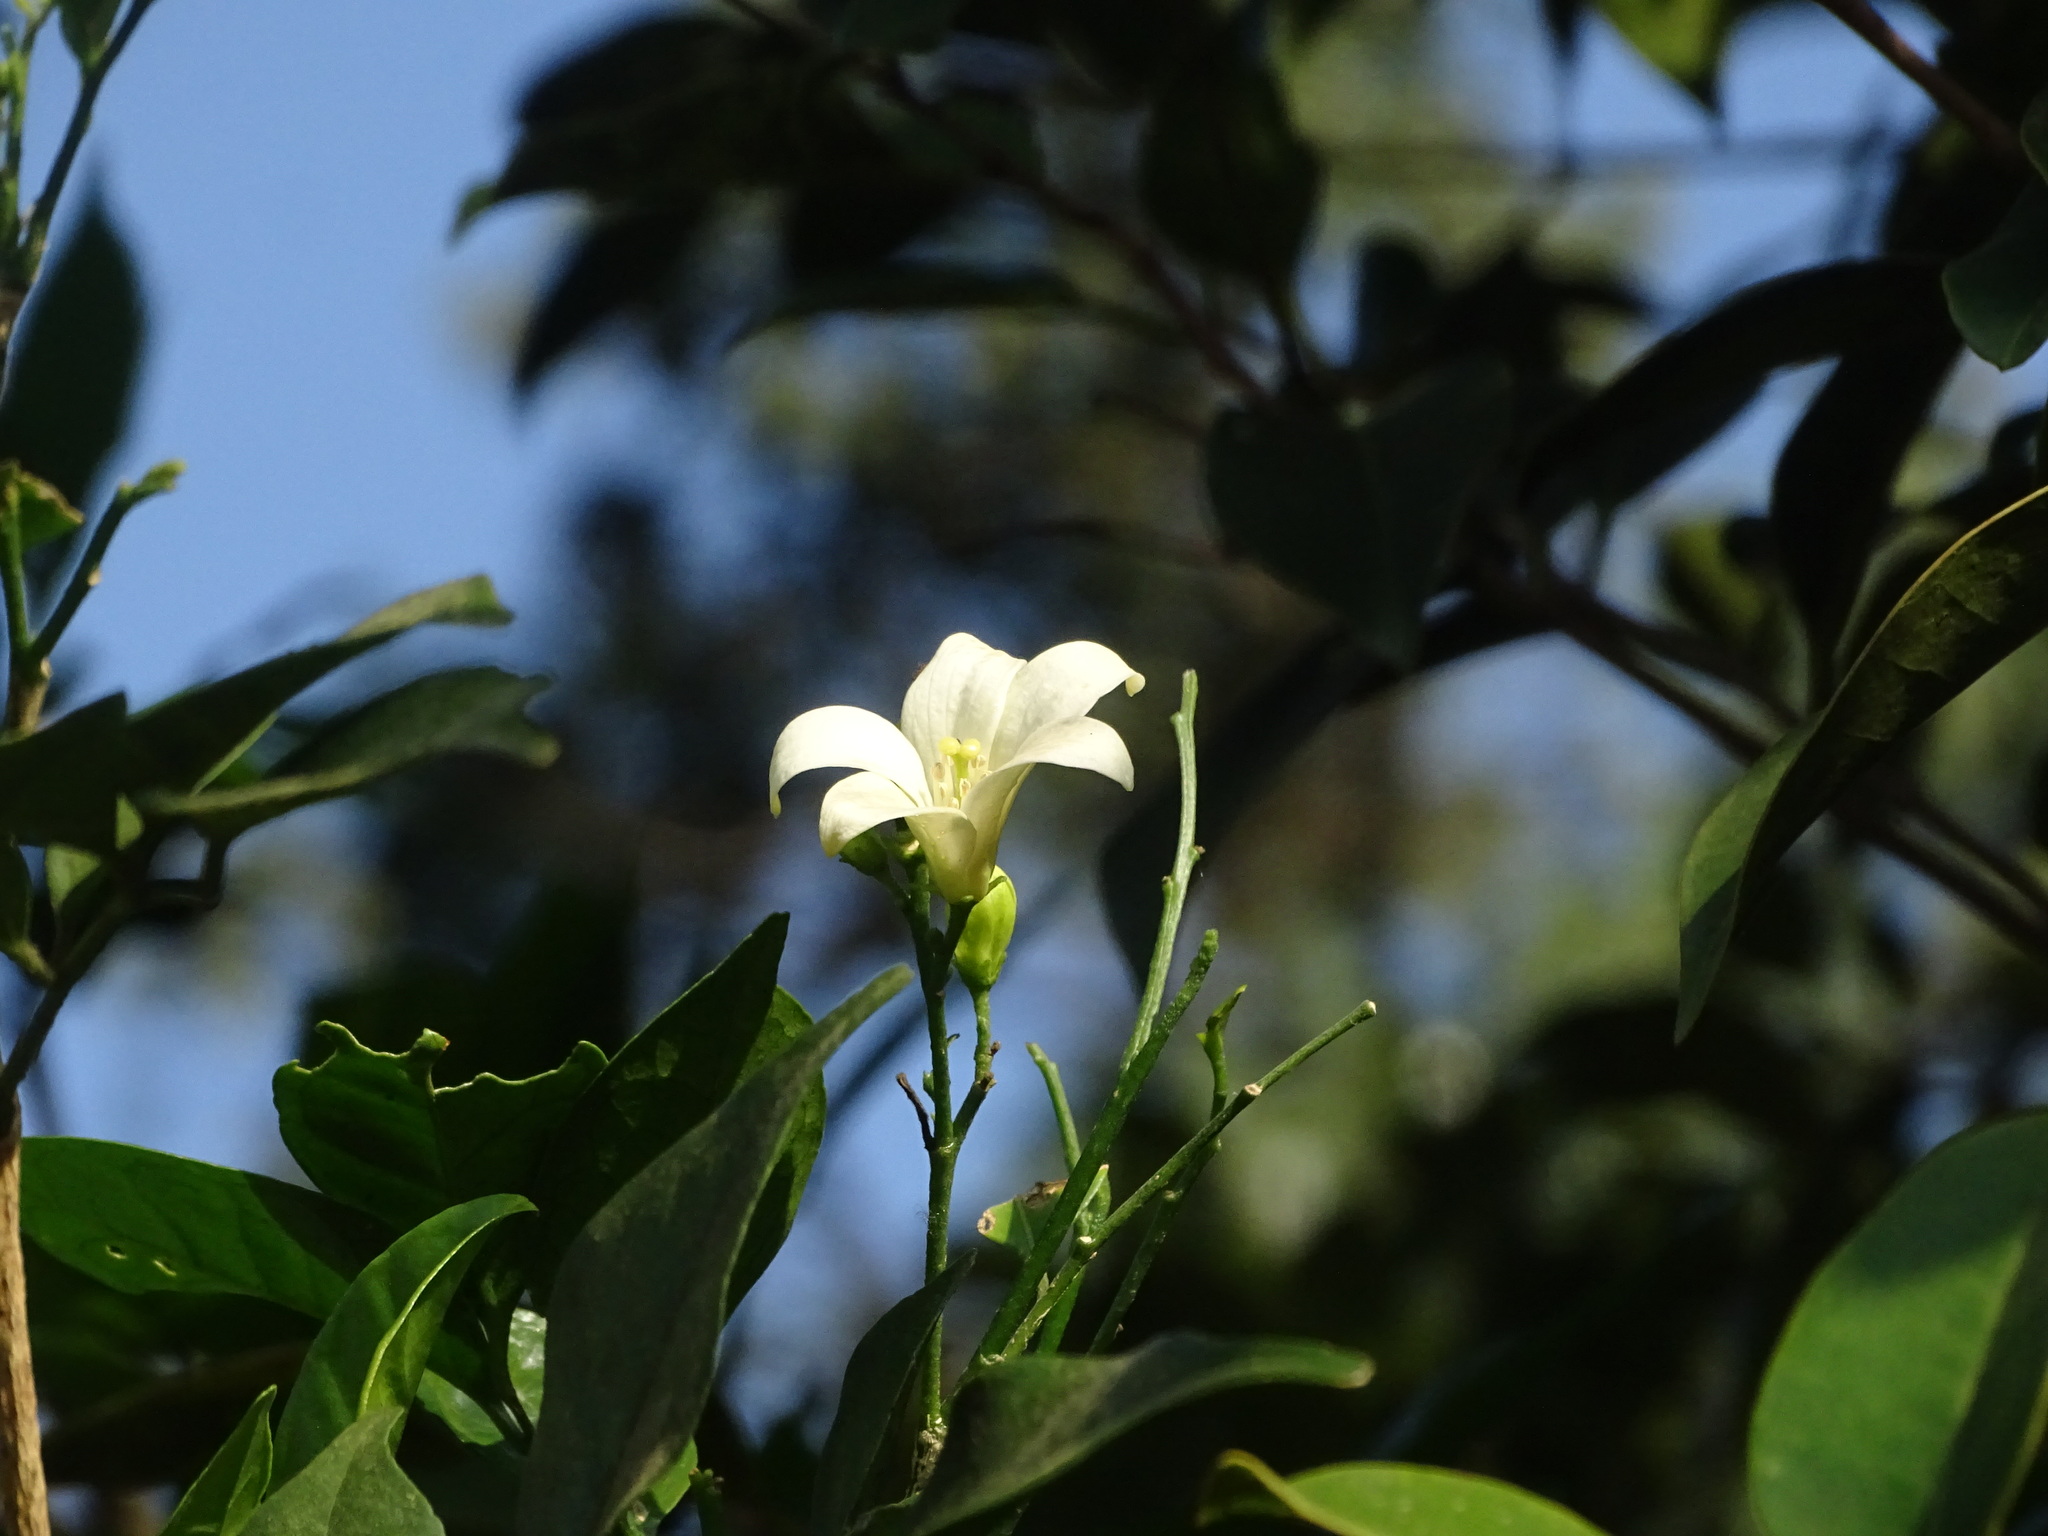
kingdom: Plantae
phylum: Tracheophyta
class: Magnoliopsida
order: Sapindales
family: Rutaceae
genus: Murraya
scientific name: Murraya paniculata
